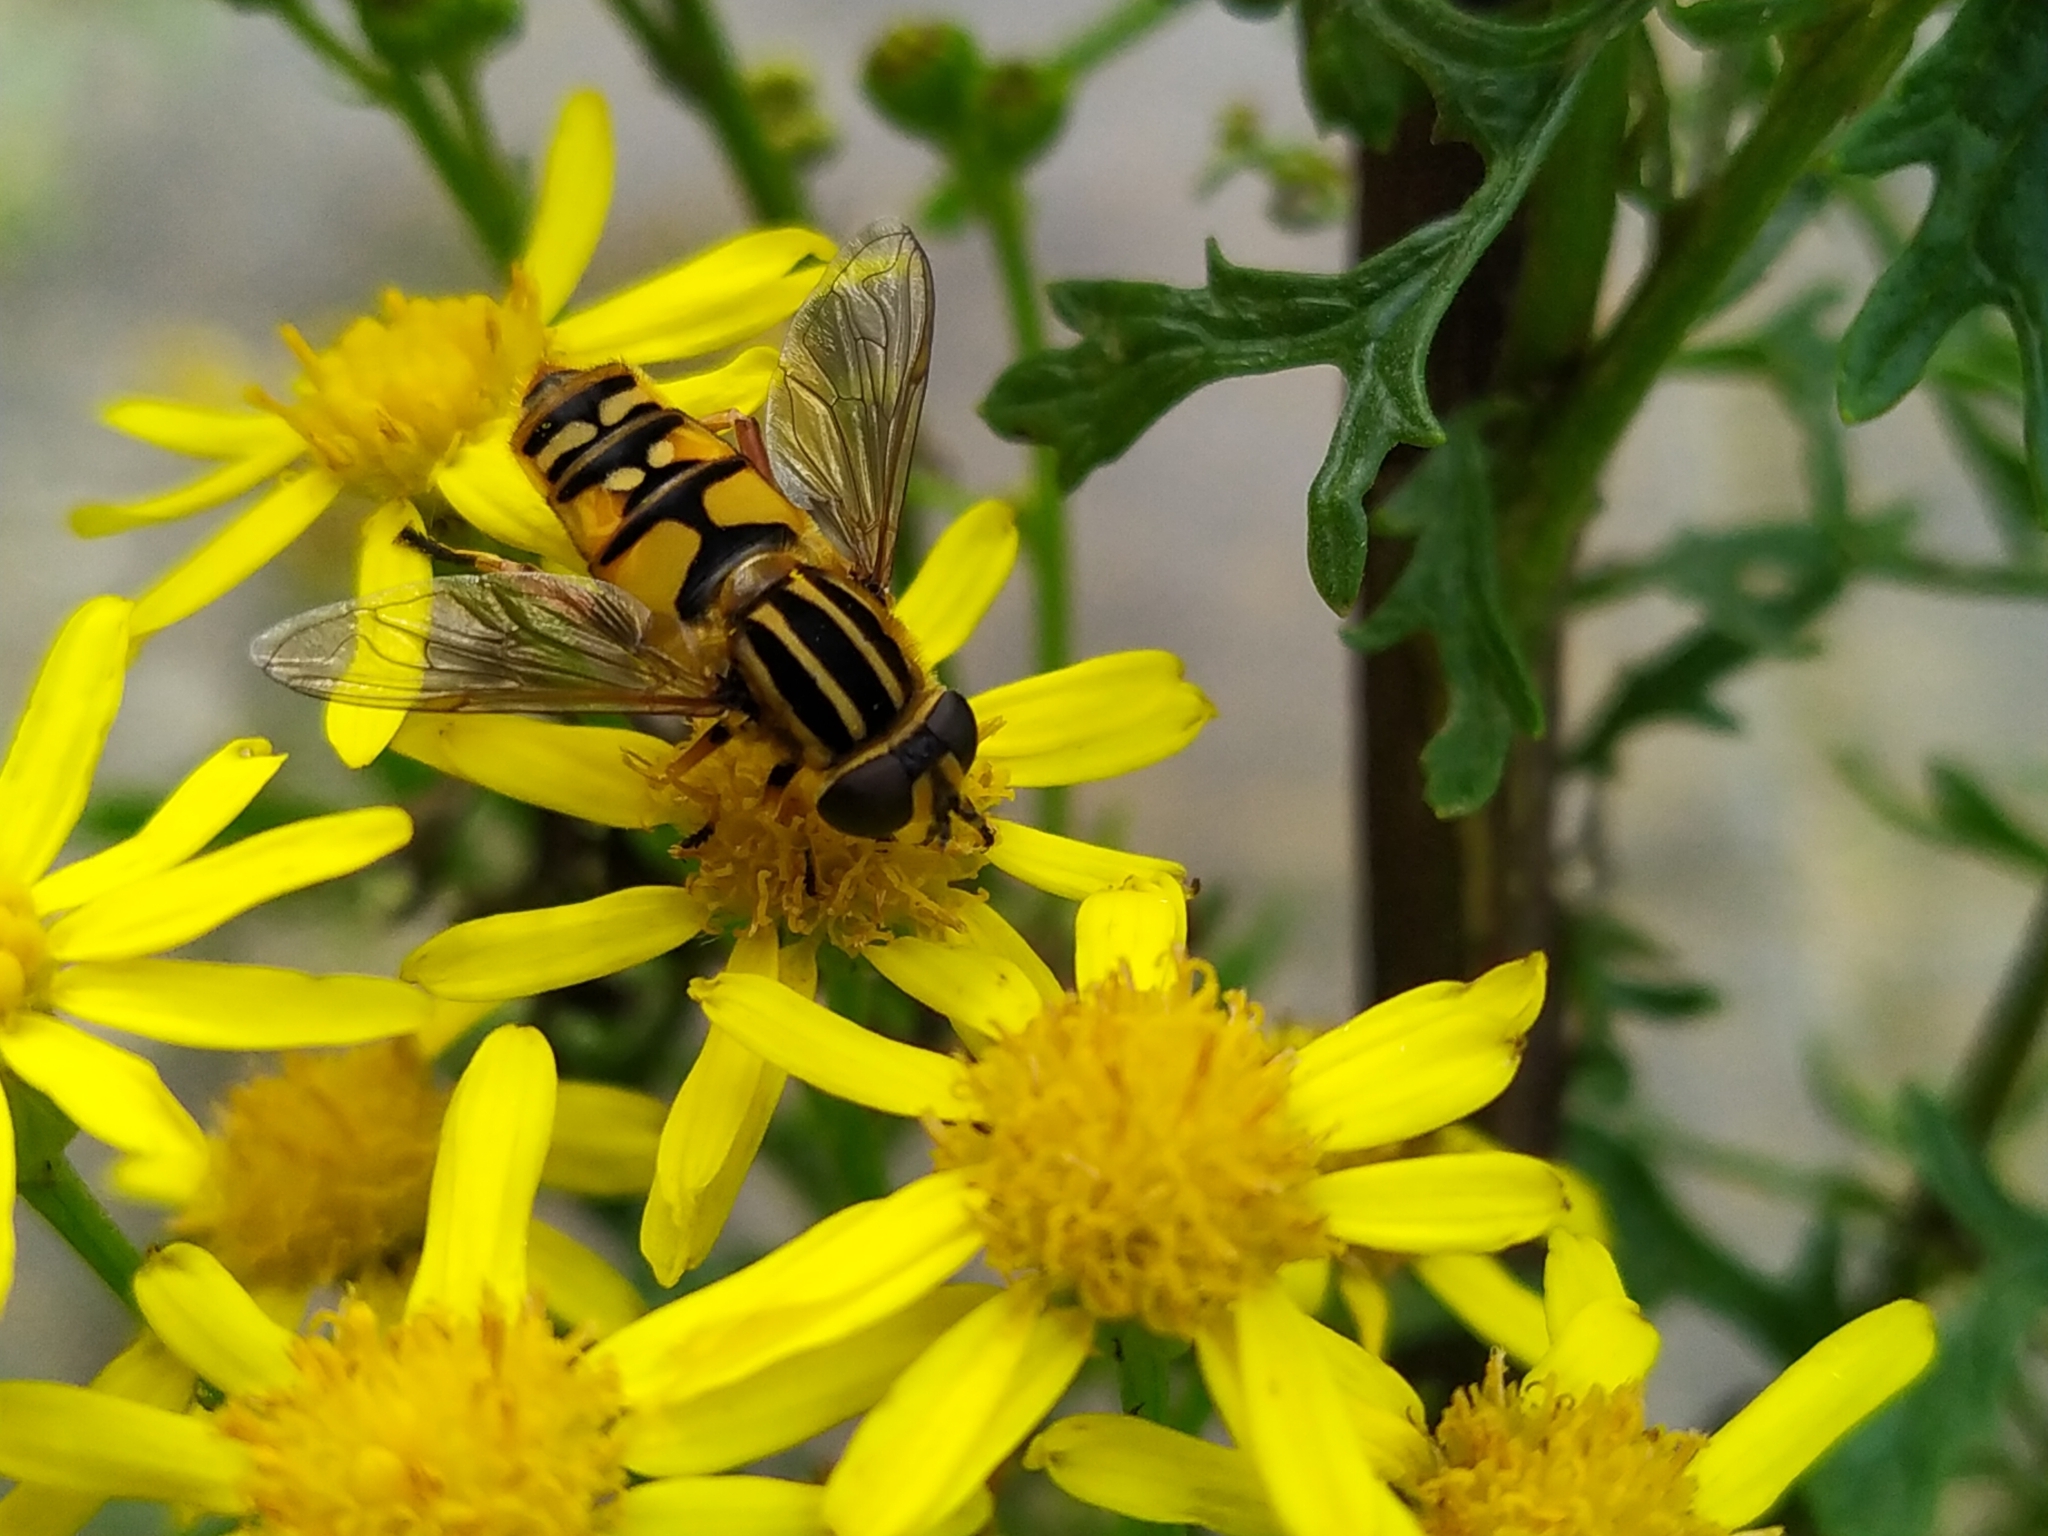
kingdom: Animalia
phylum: Arthropoda
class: Insecta
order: Diptera
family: Syrphidae
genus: Helophilus
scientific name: Helophilus pendulus
